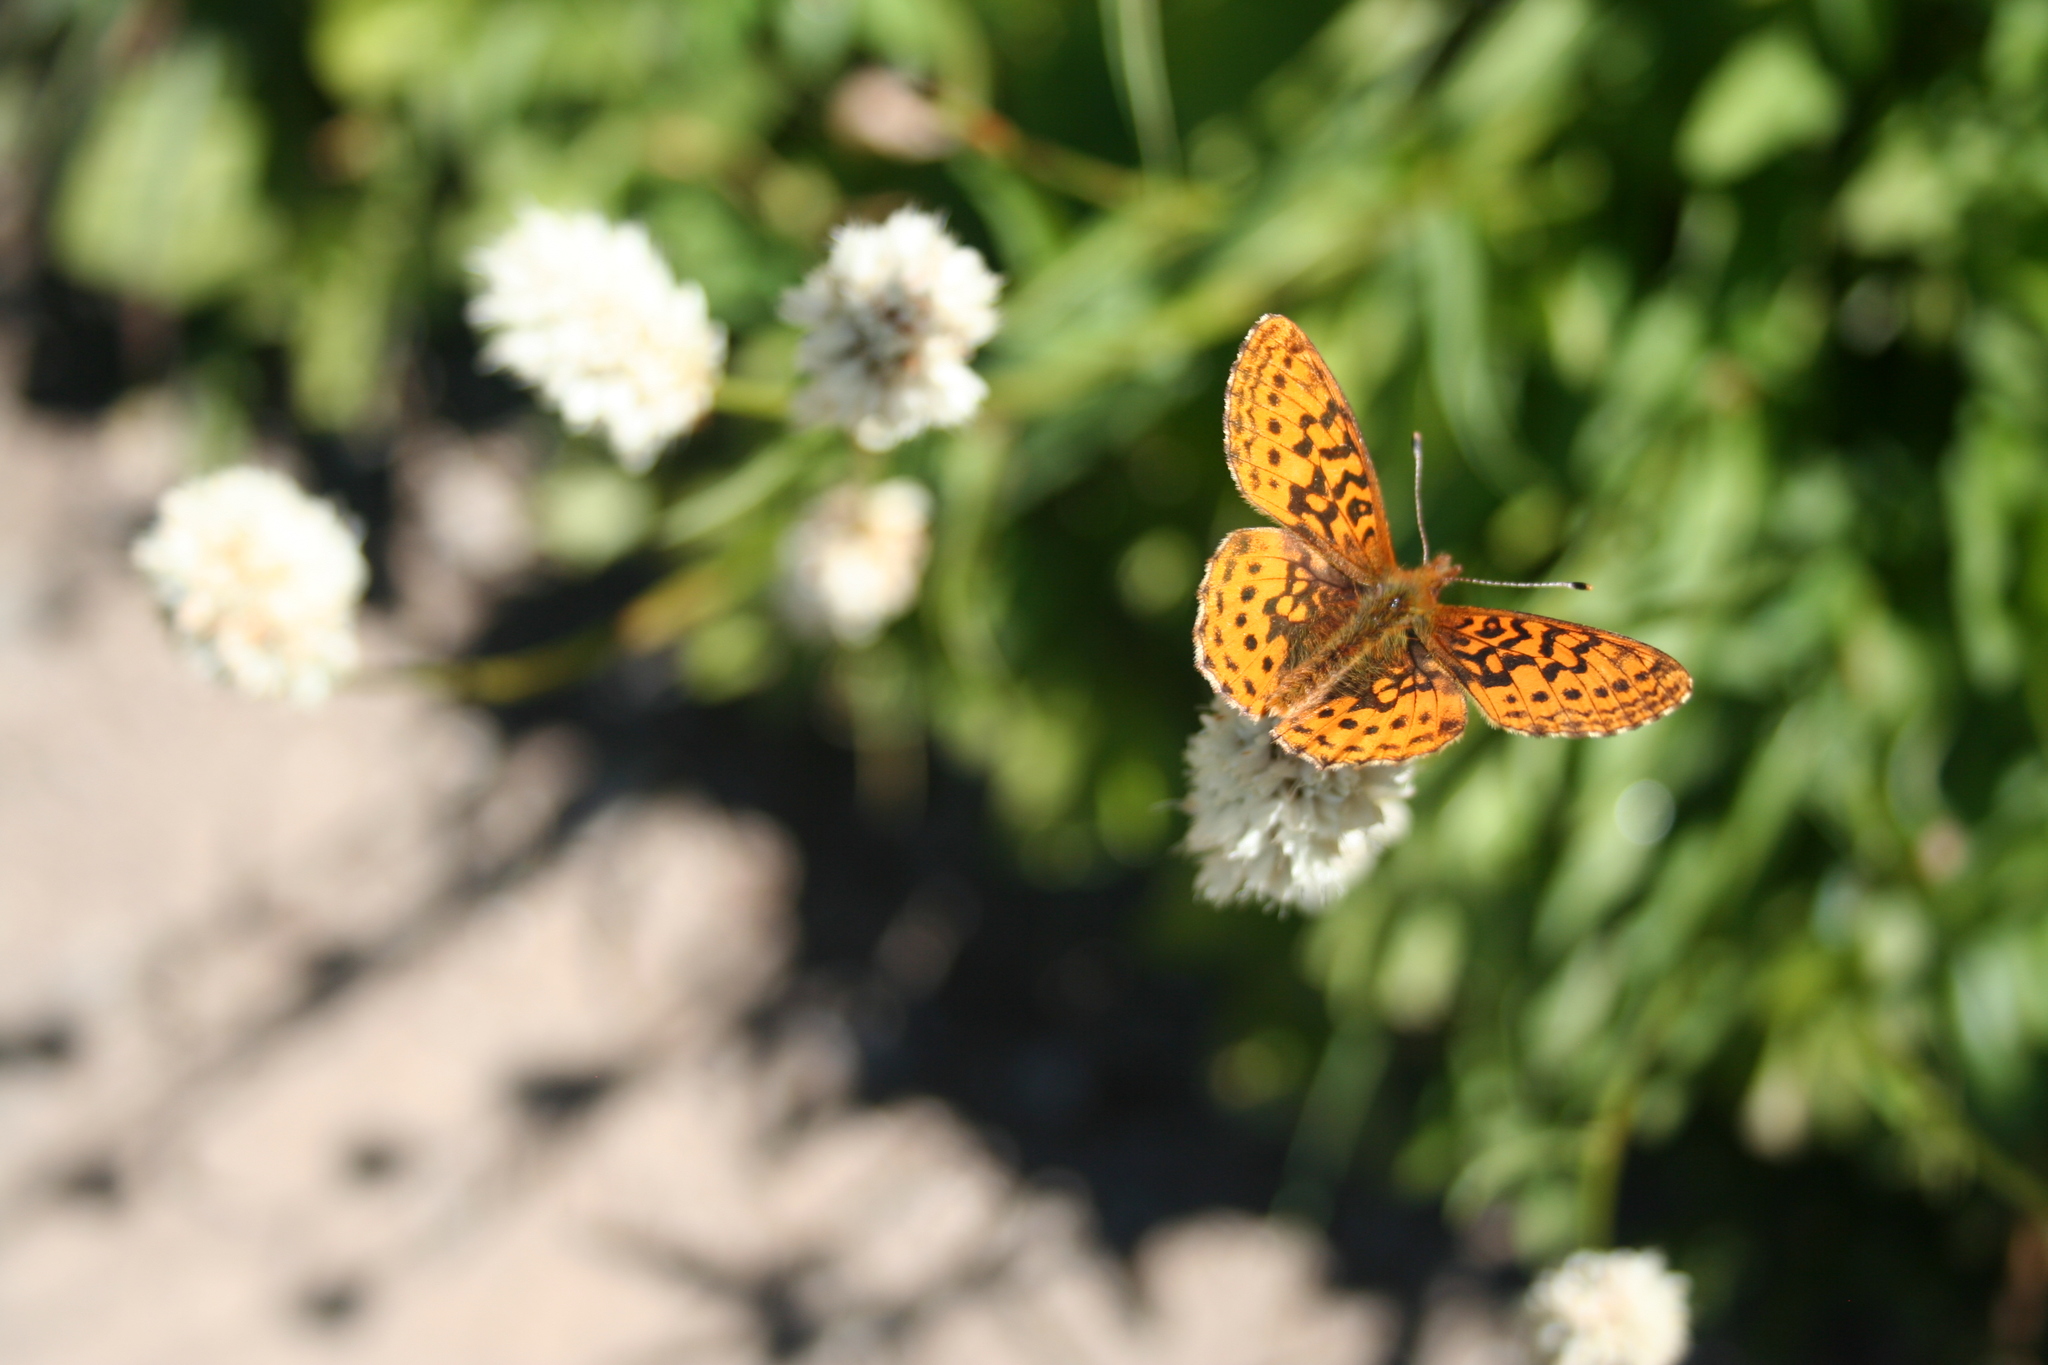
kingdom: Animalia
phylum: Arthropoda
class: Insecta
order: Lepidoptera
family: Nymphalidae
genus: Boloria
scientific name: Boloria epithore
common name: Pacific fritillary
